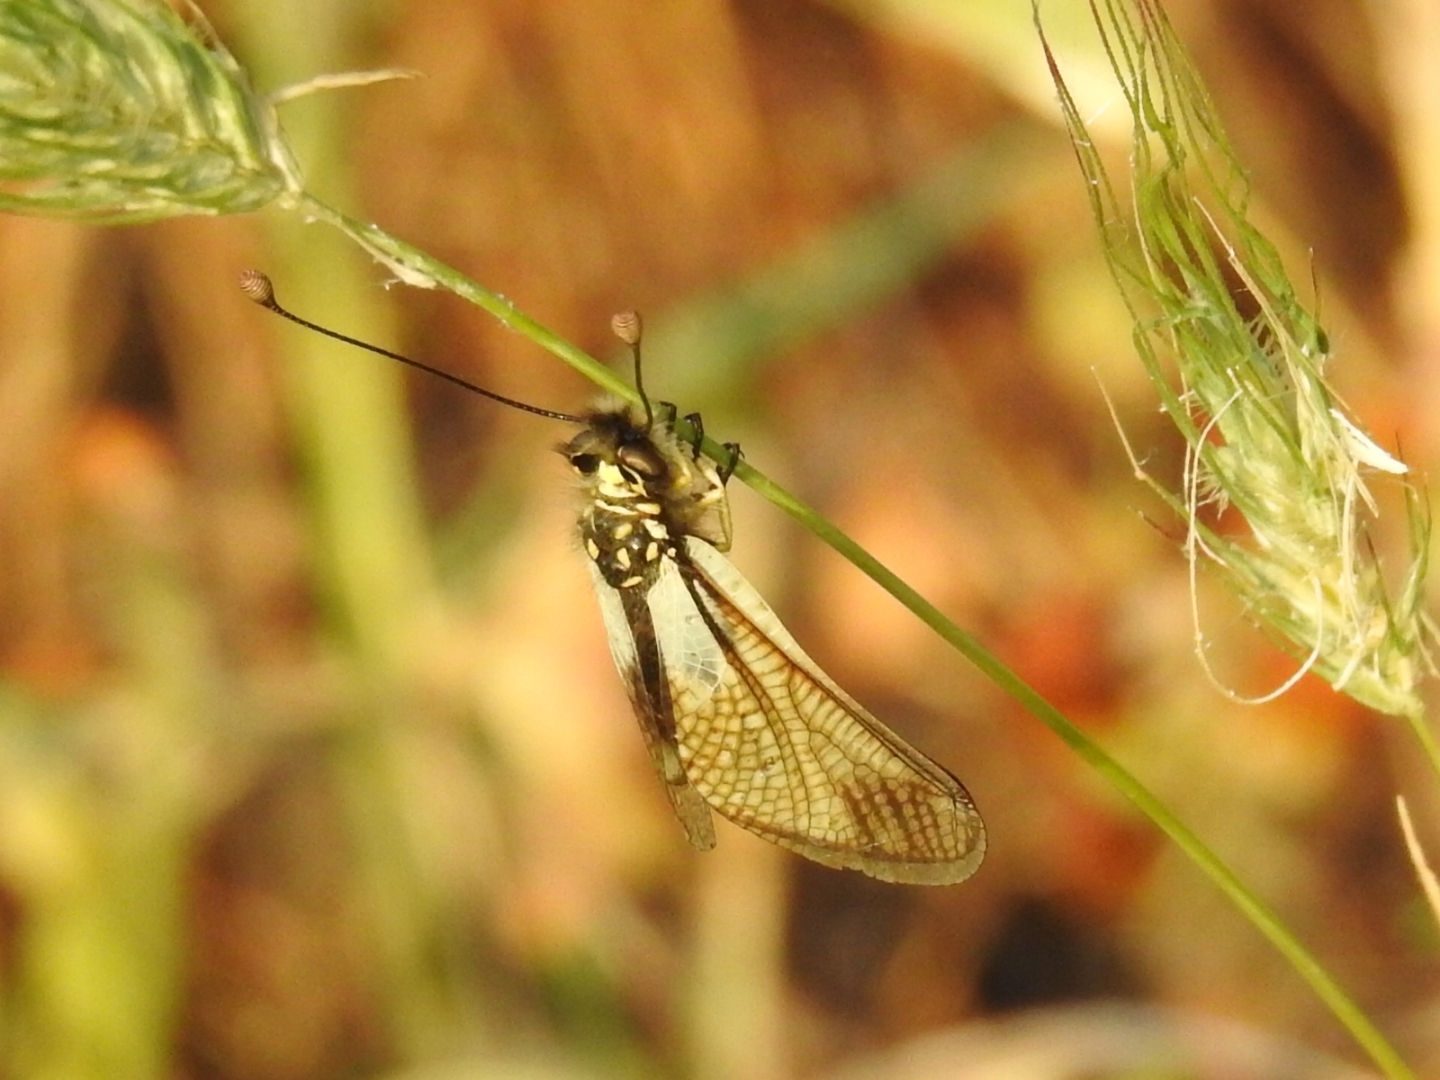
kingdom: Animalia
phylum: Arthropoda
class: Insecta
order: Neuroptera
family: Ascalaphidae
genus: Libelloides
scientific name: Libelloides latinus
